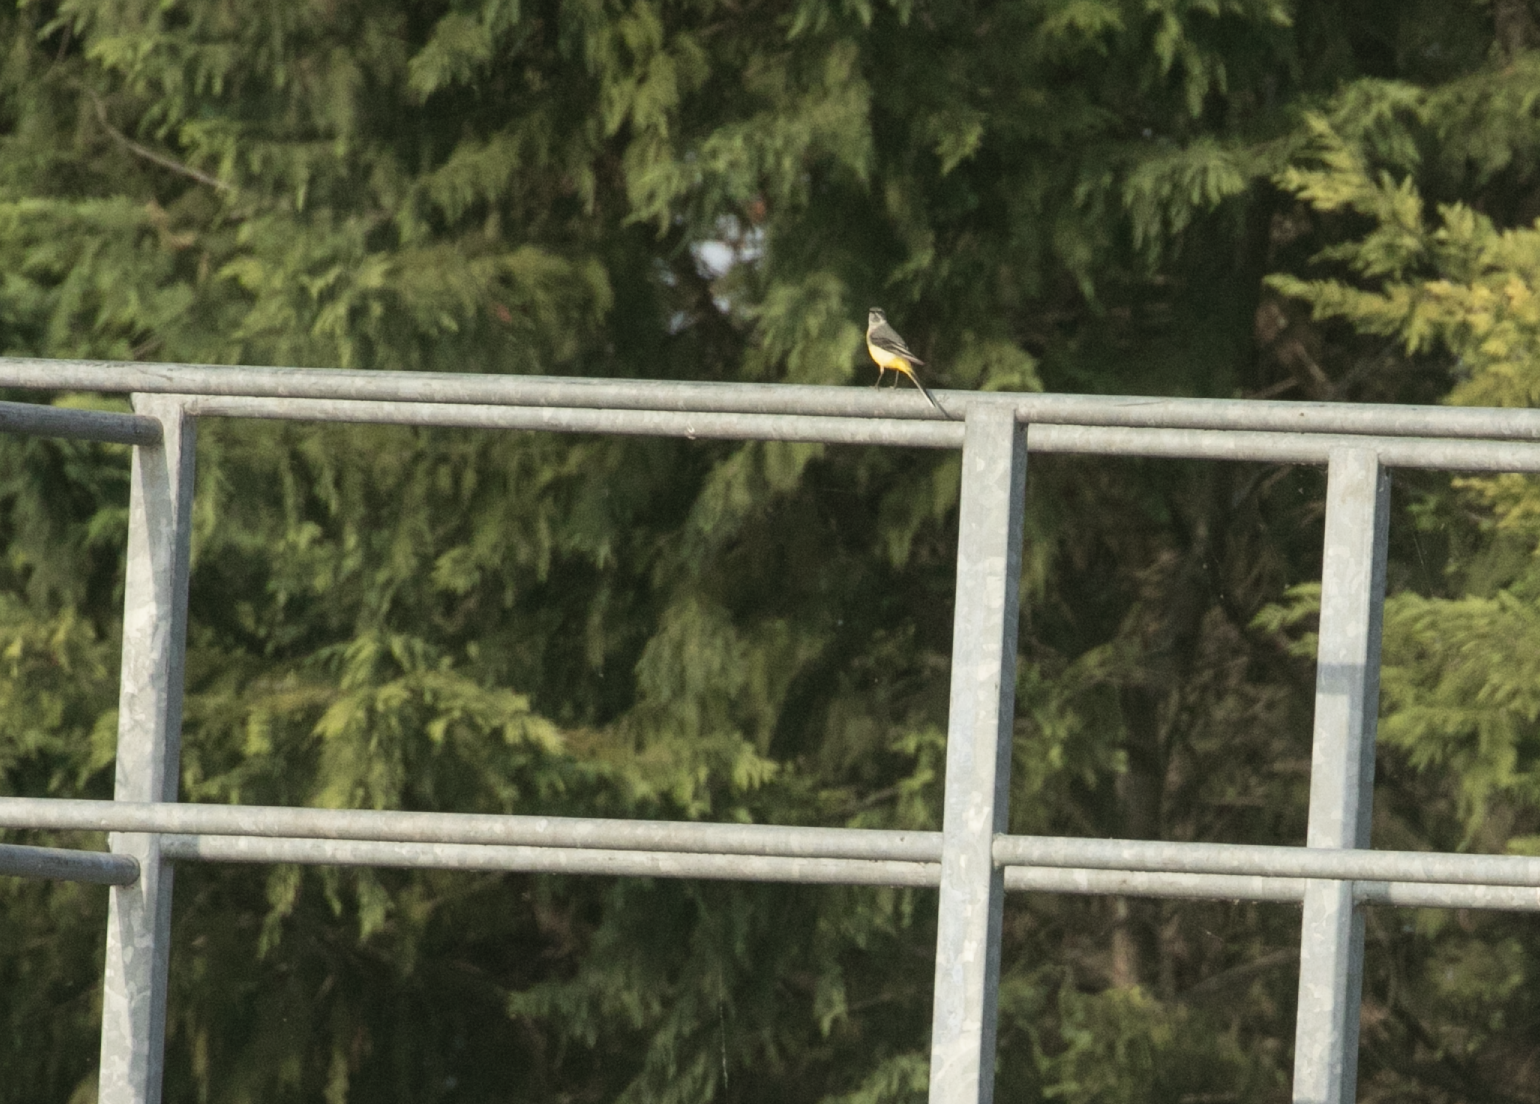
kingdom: Animalia
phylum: Chordata
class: Aves
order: Passeriformes
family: Motacillidae
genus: Motacilla
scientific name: Motacilla cinerea
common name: Grey wagtail
